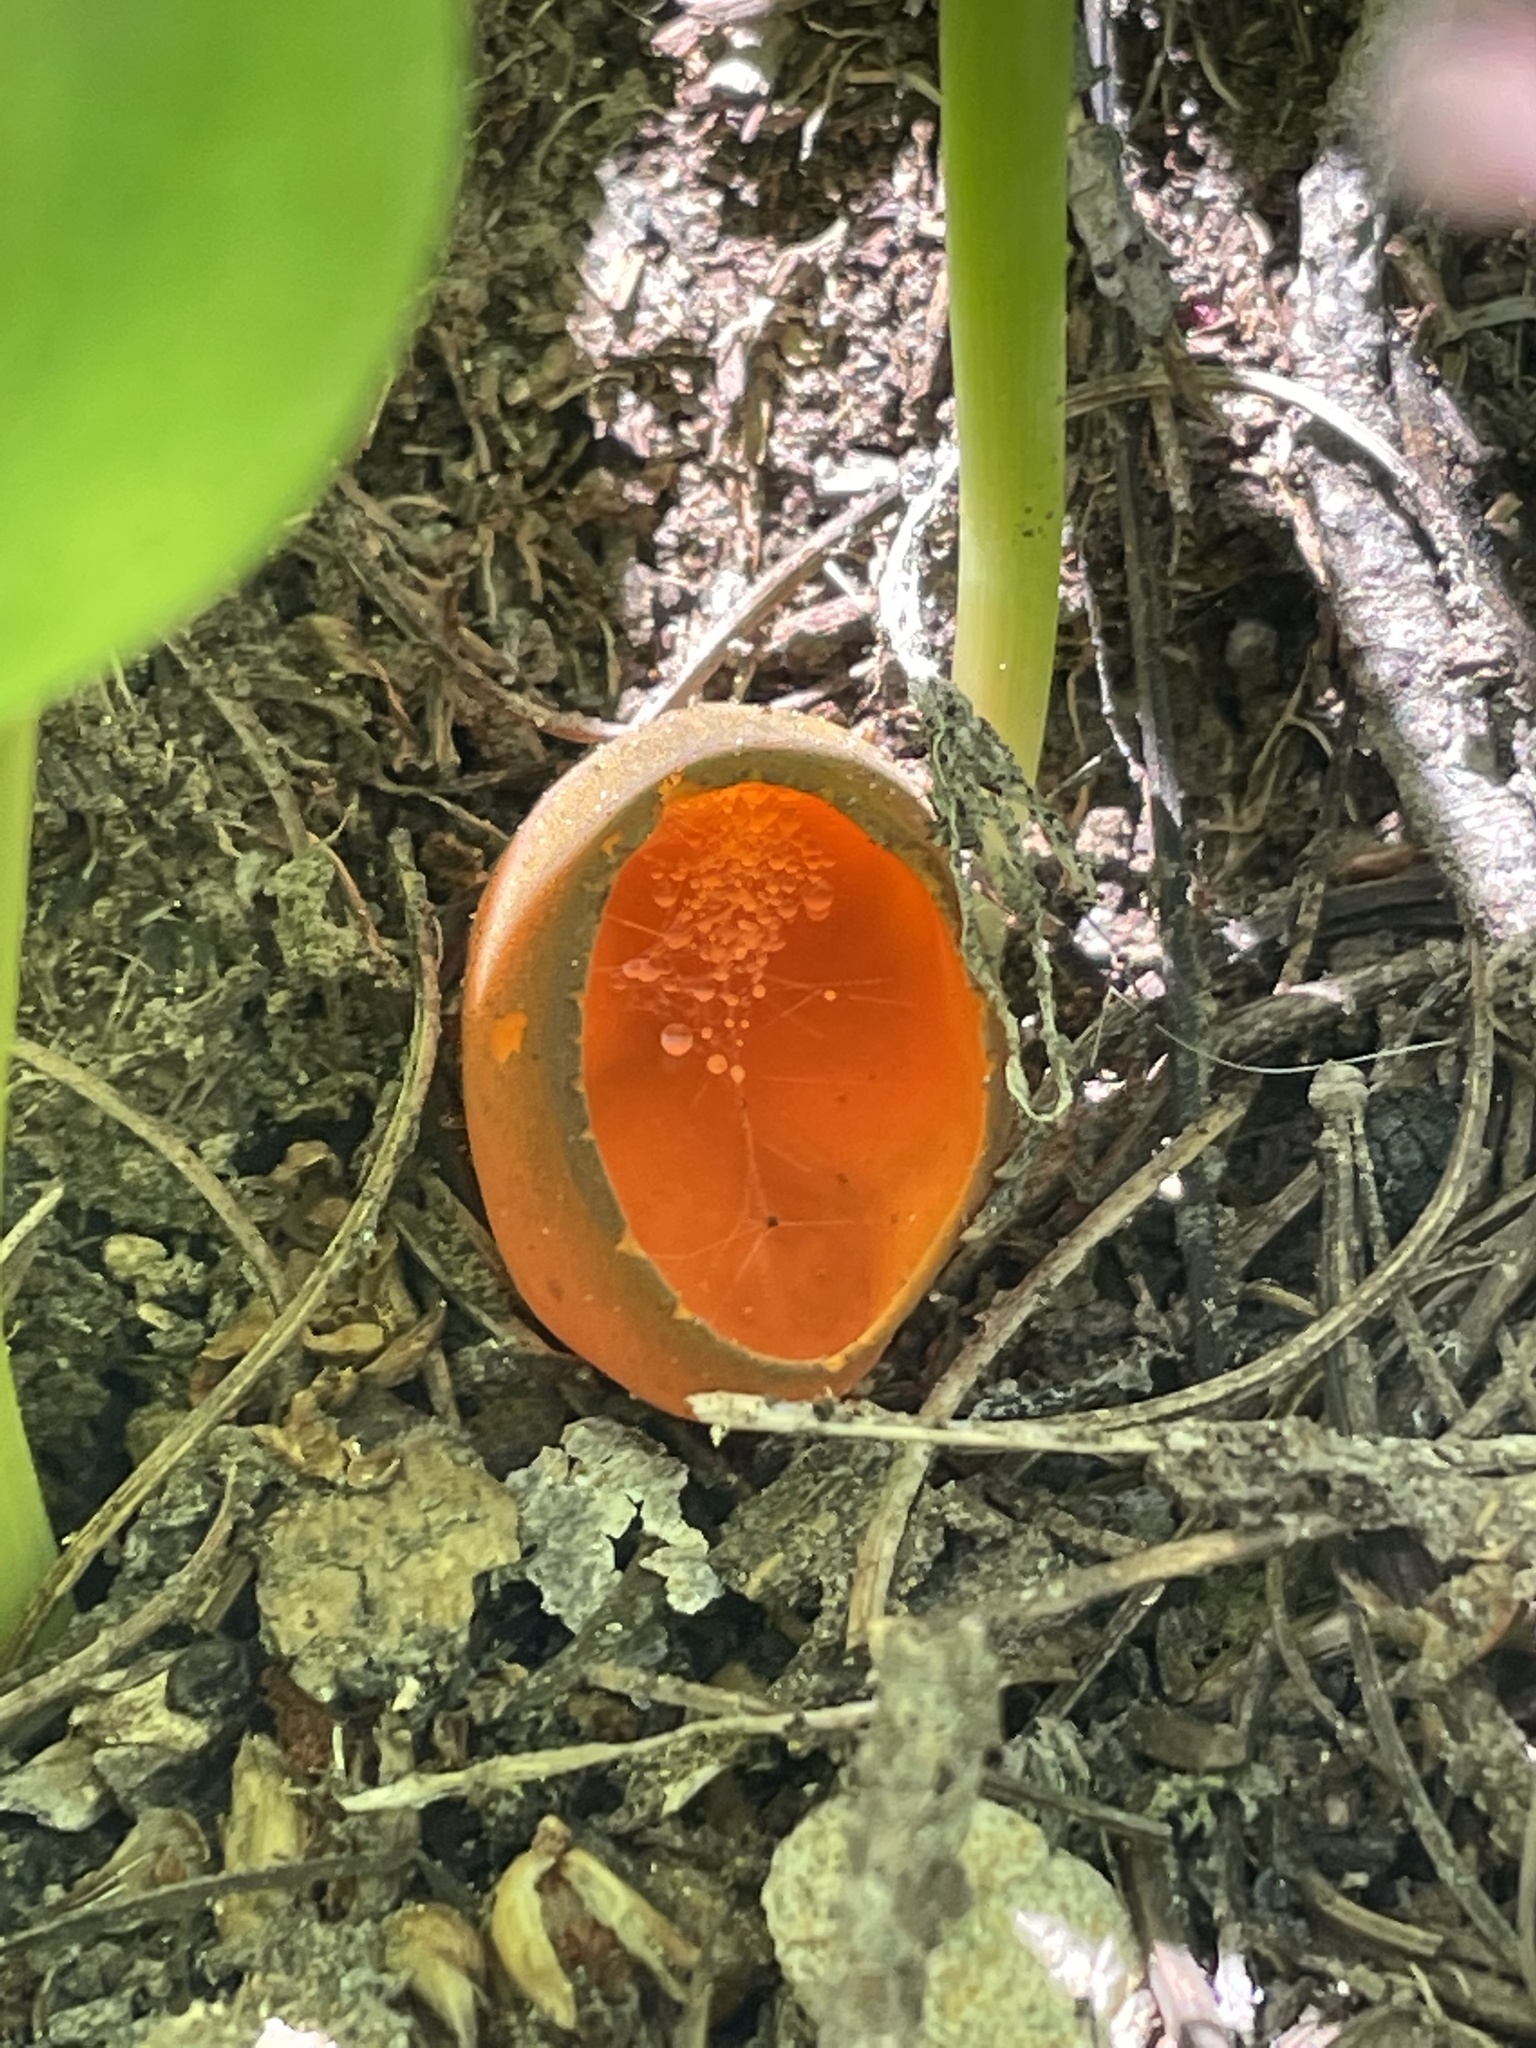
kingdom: Fungi
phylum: Ascomycota
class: Pezizomycetes
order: Pezizales
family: Caloscyphaceae
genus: Caloscypha
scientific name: Caloscypha fulgens
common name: Golden cup
